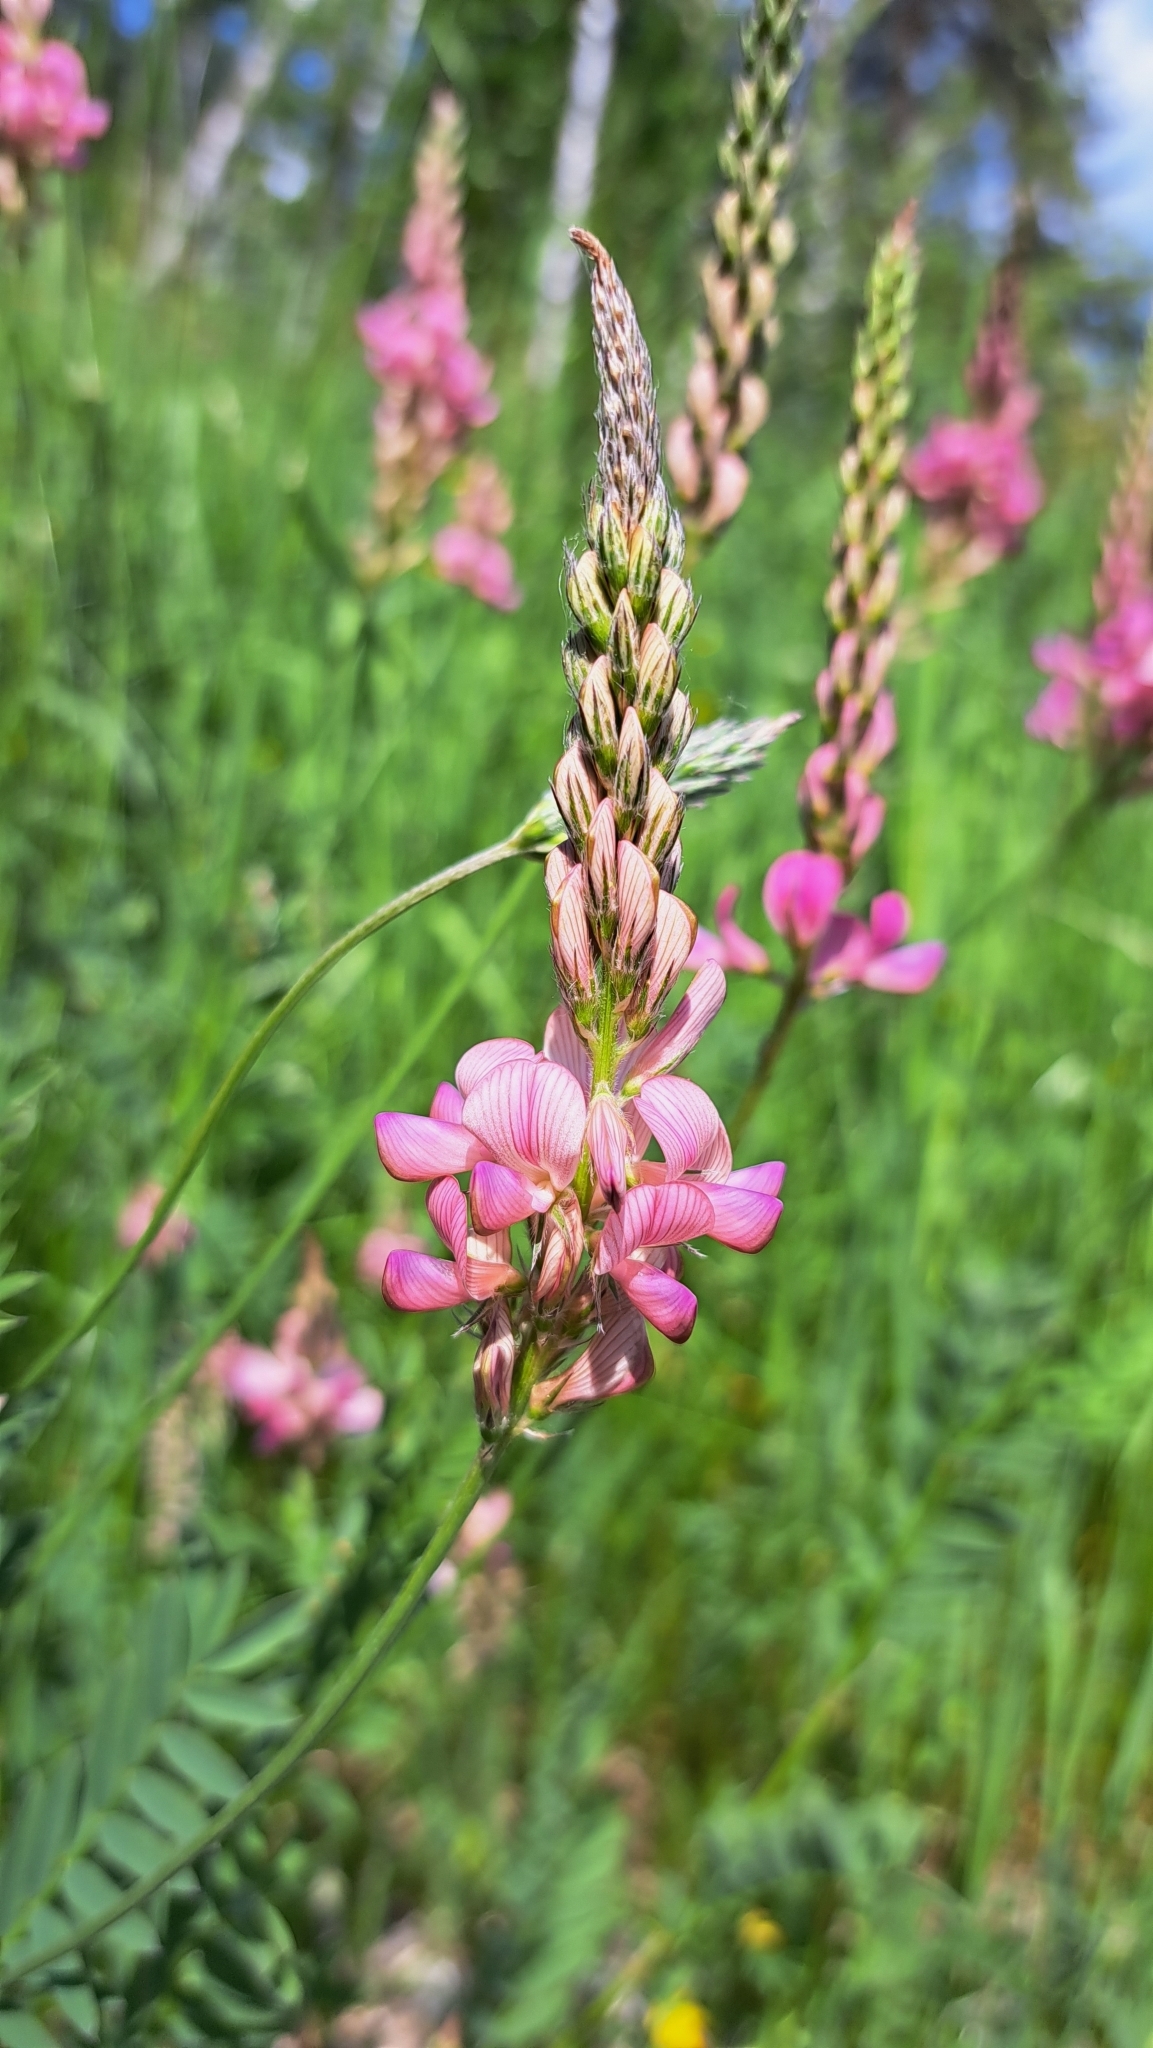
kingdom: Plantae
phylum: Tracheophyta
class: Magnoliopsida
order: Fabales
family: Fabaceae
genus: Onobrychis
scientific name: Onobrychis viciifolia
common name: Sainfoin
